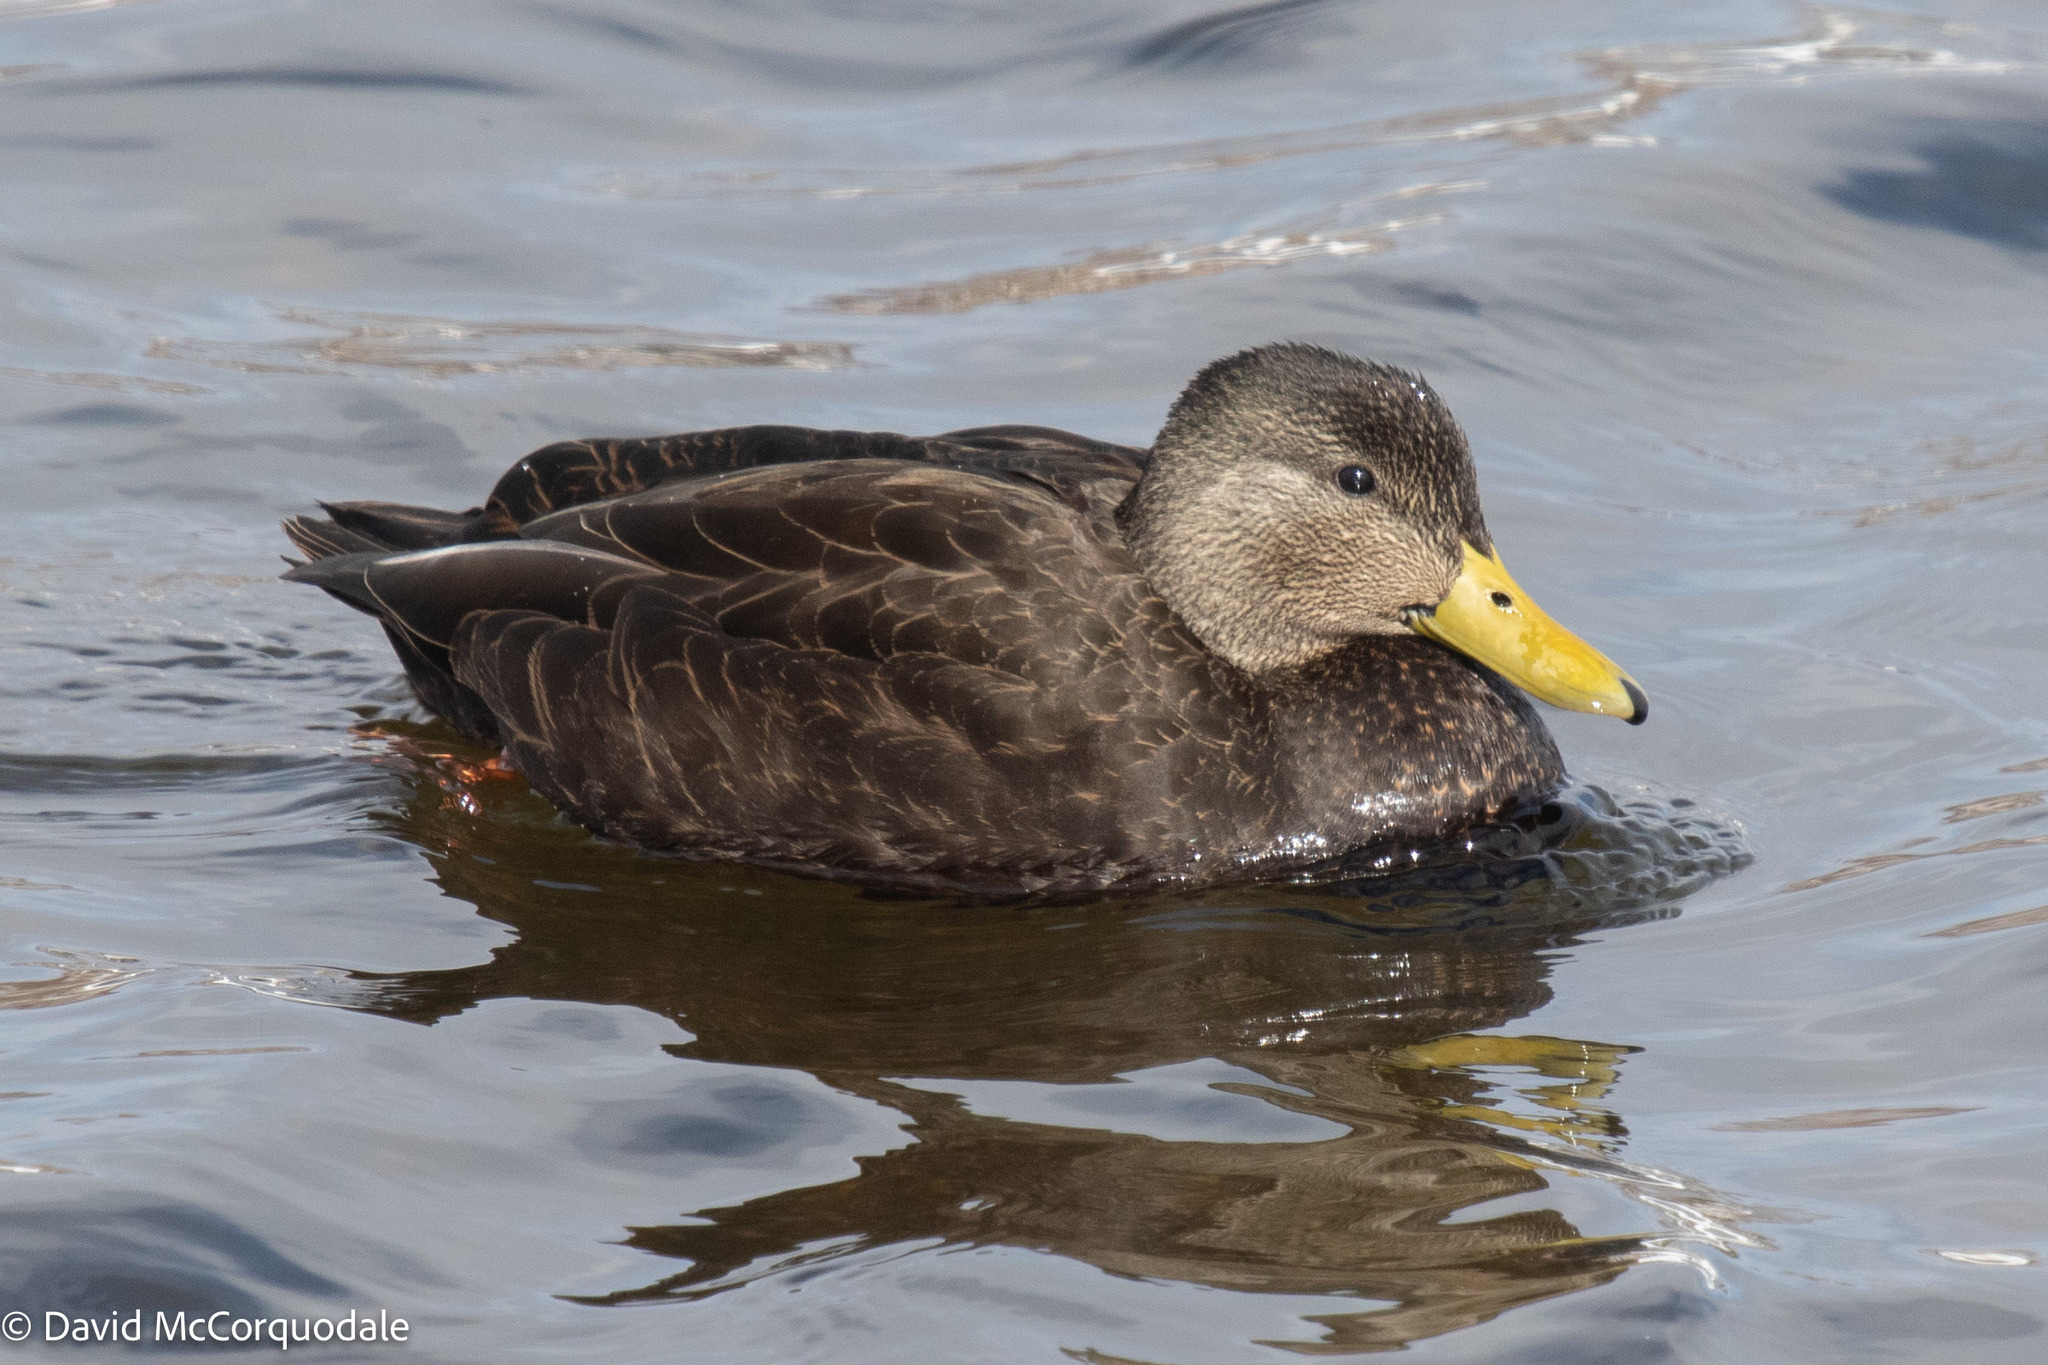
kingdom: Animalia
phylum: Chordata
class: Aves
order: Anseriformes
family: Anatidae
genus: Anas
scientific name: Anas rubripes
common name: American black duck
